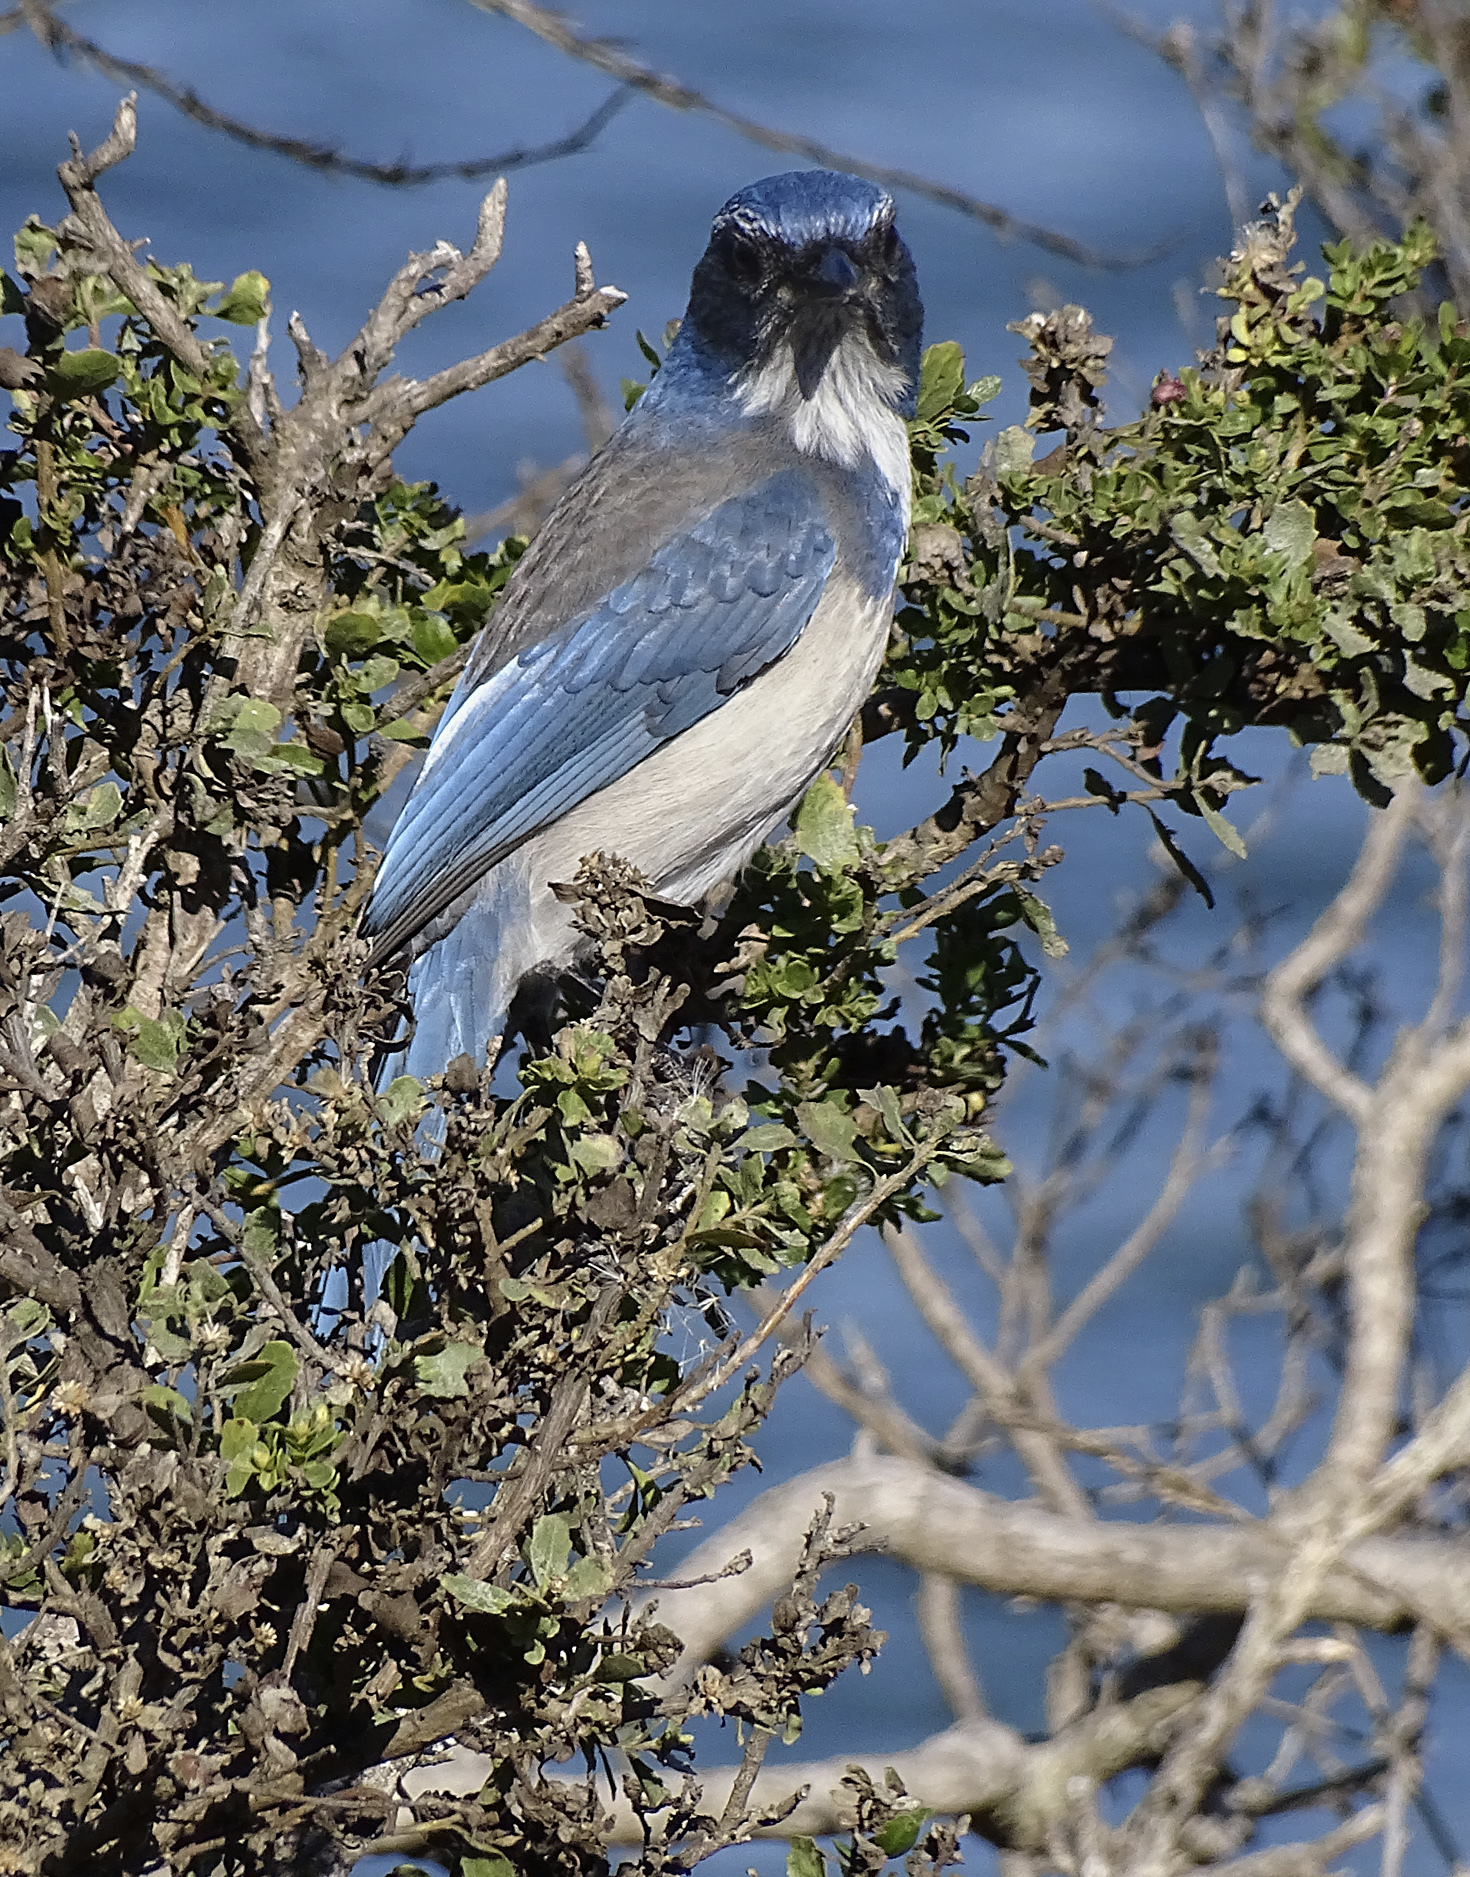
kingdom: Animalia
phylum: Chordata
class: Aves
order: Passeriformes
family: Corvidae
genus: Aphelocoma
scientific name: Aphelocoma californica
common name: California scrub-jay
